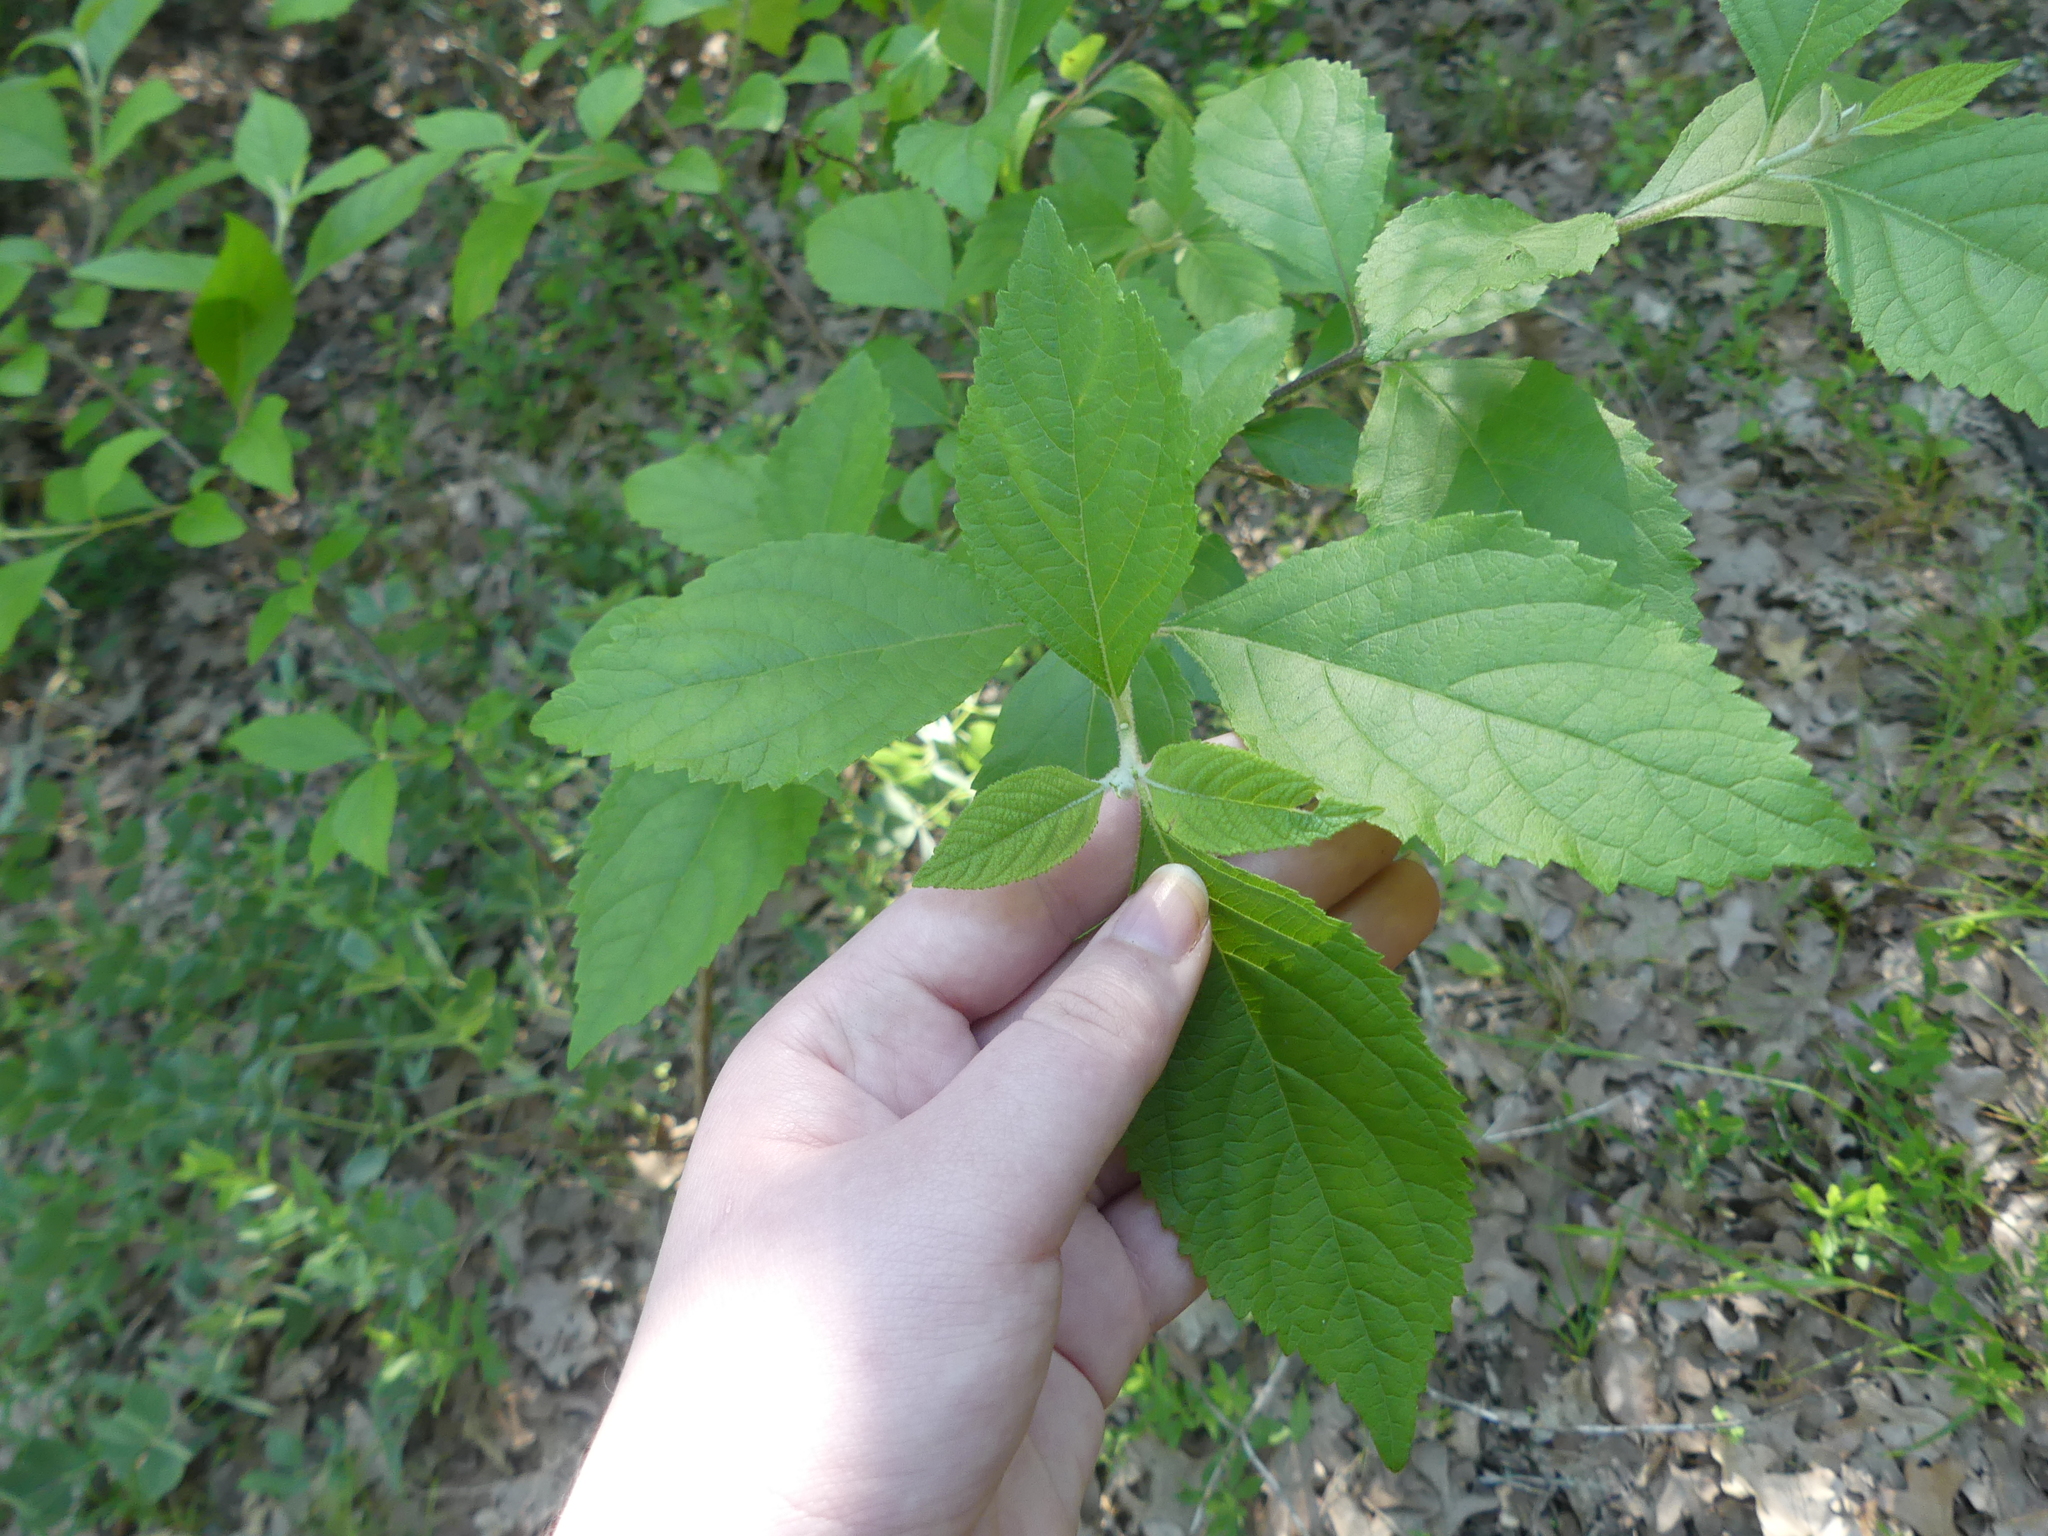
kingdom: Plantae
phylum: Tracheophyta
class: Magnoliopsida
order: Lamiales
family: Lamiaceae
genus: Callicarpa
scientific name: Callicarpa americana
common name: American beautyberry
